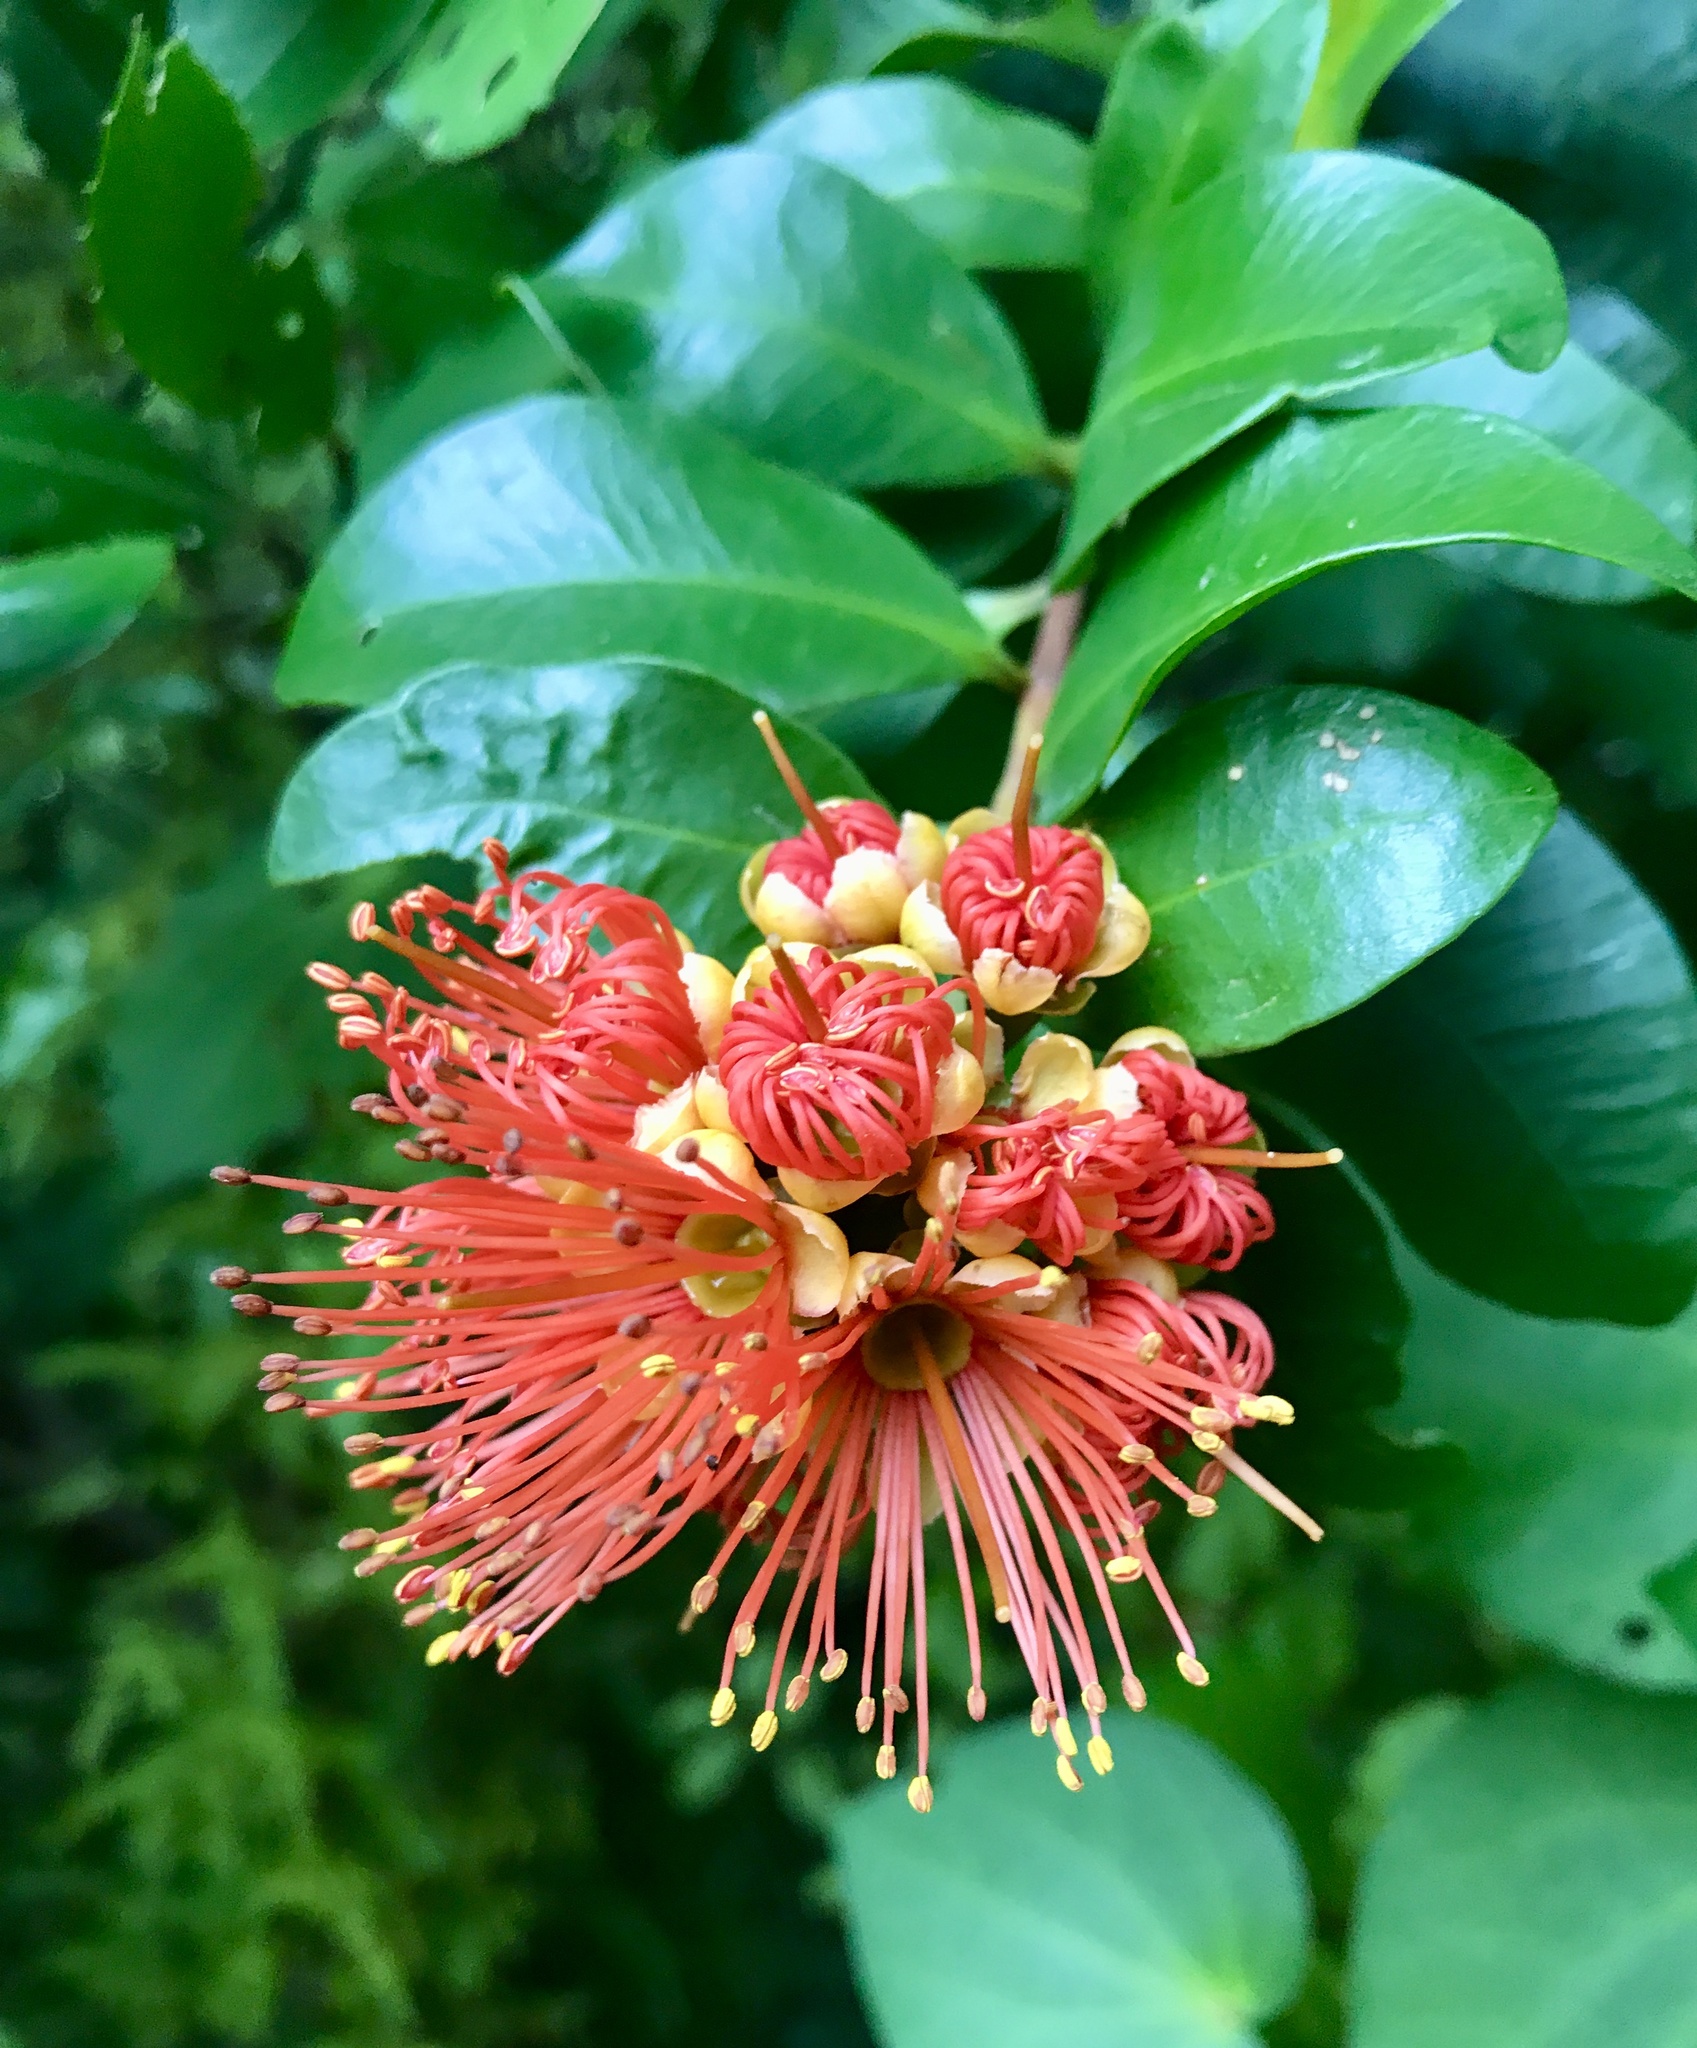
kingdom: Plantae
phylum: Tracheophyta
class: Magnoliopsida
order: Myrtales
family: Myrtaceae
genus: Metrosideros
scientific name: Metrosideros fulgens
